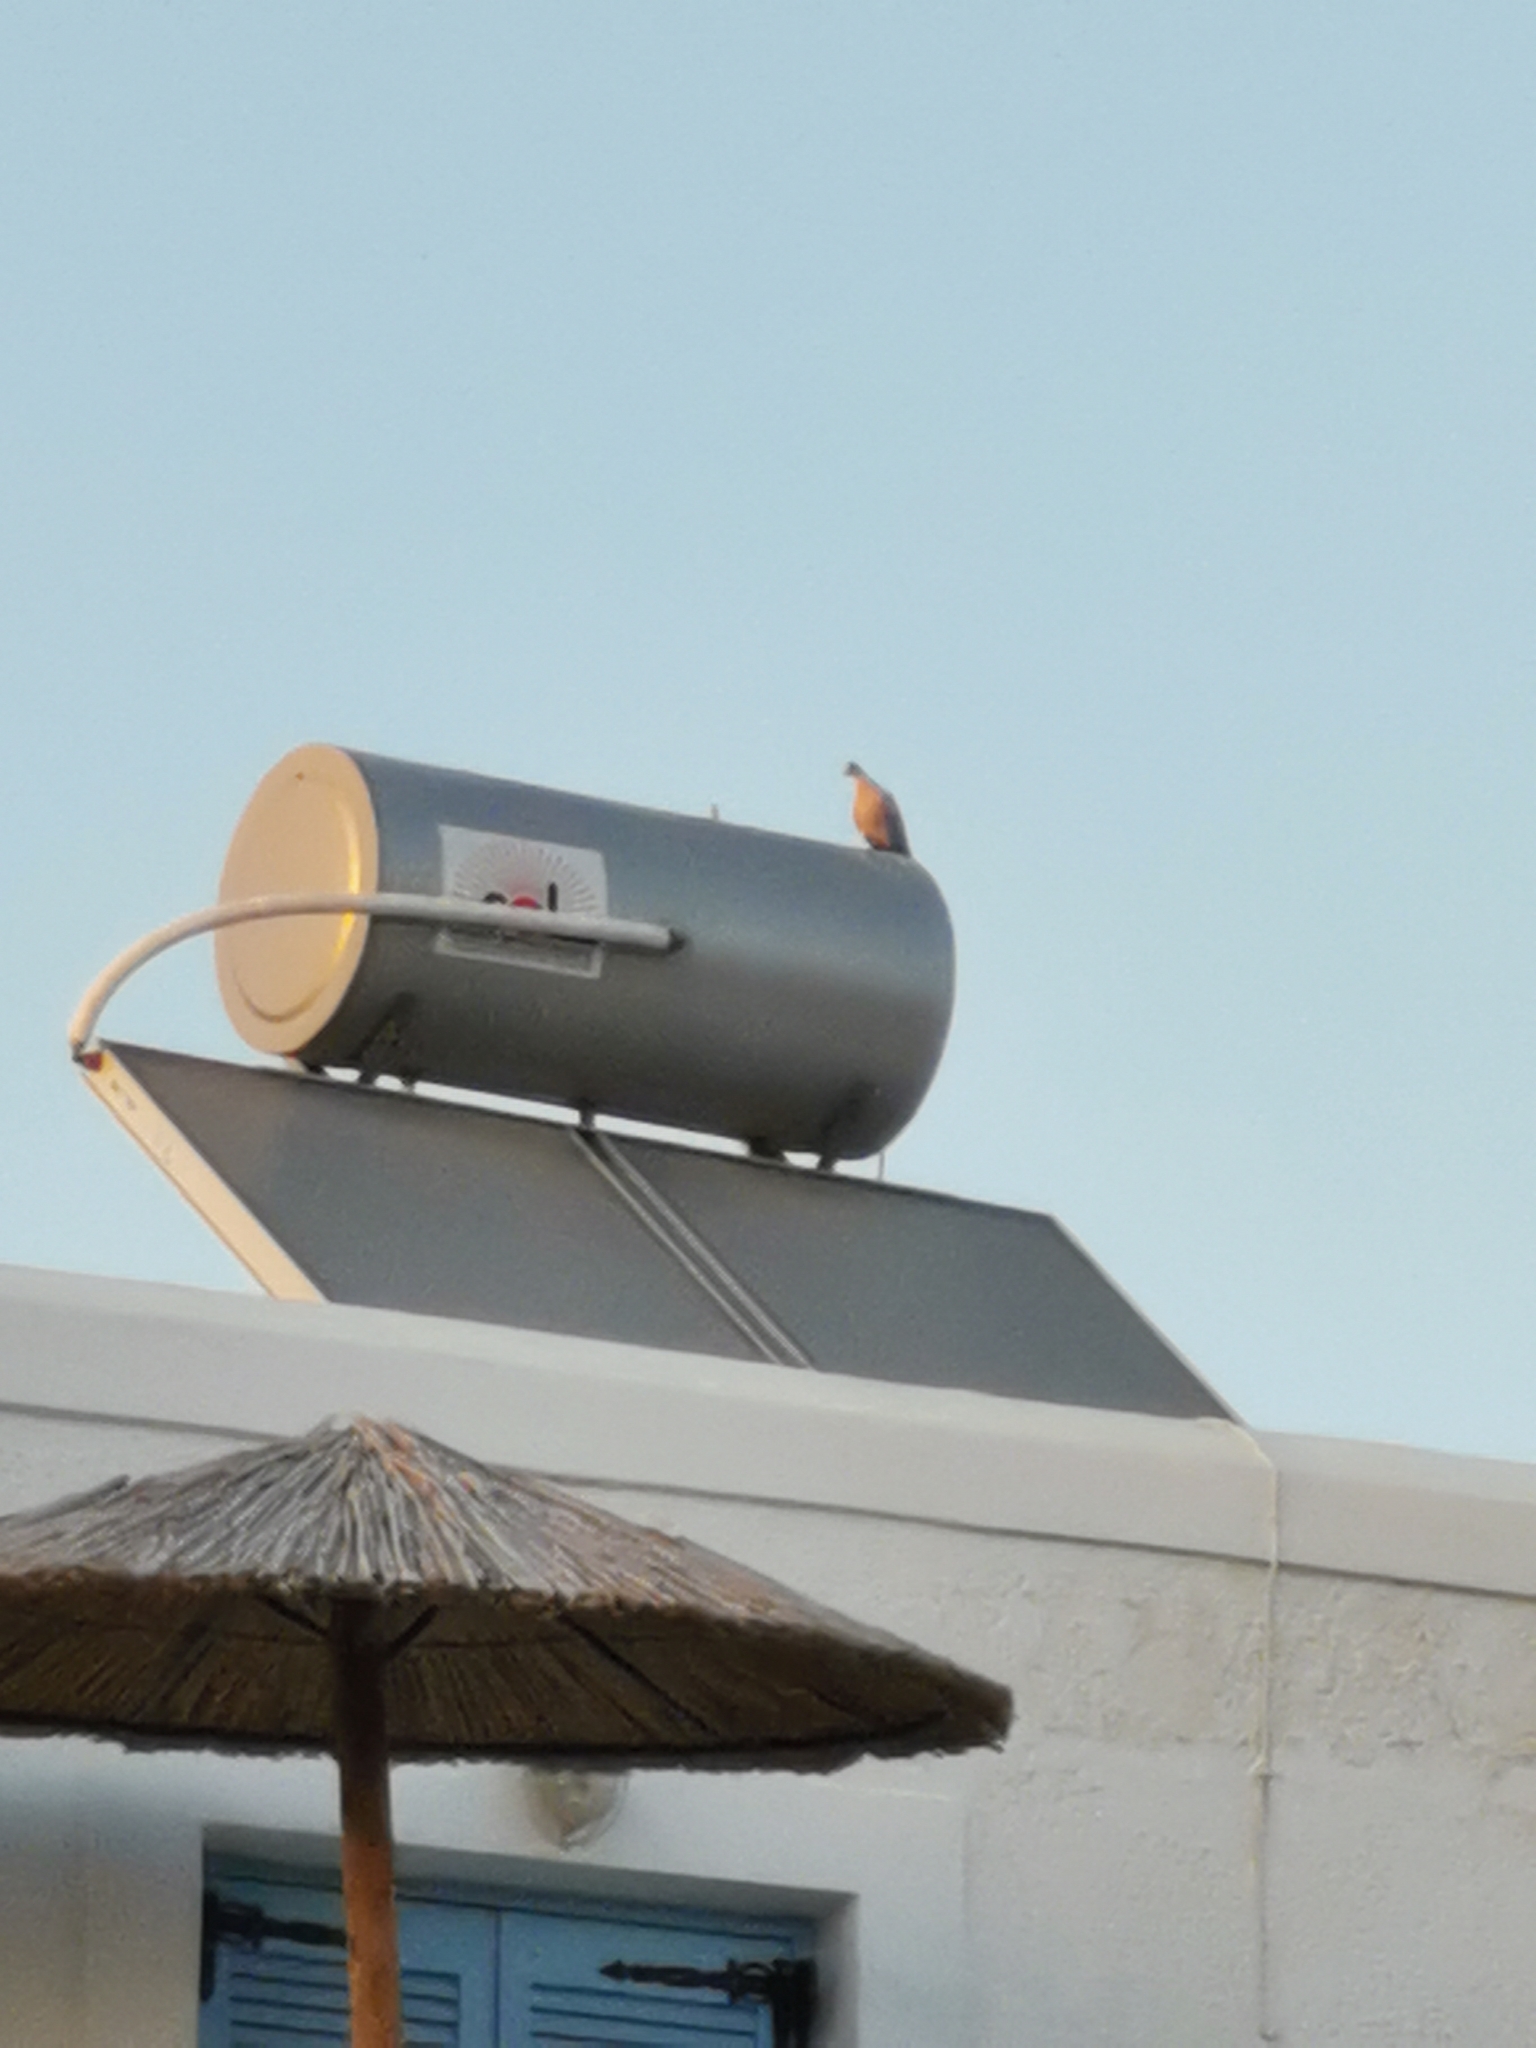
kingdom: Animalia
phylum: Chordata
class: Aves
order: Columbiformes
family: Columbidae
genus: Streptopelia
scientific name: Streptopelia decaocto
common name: Eurasian collared dove
